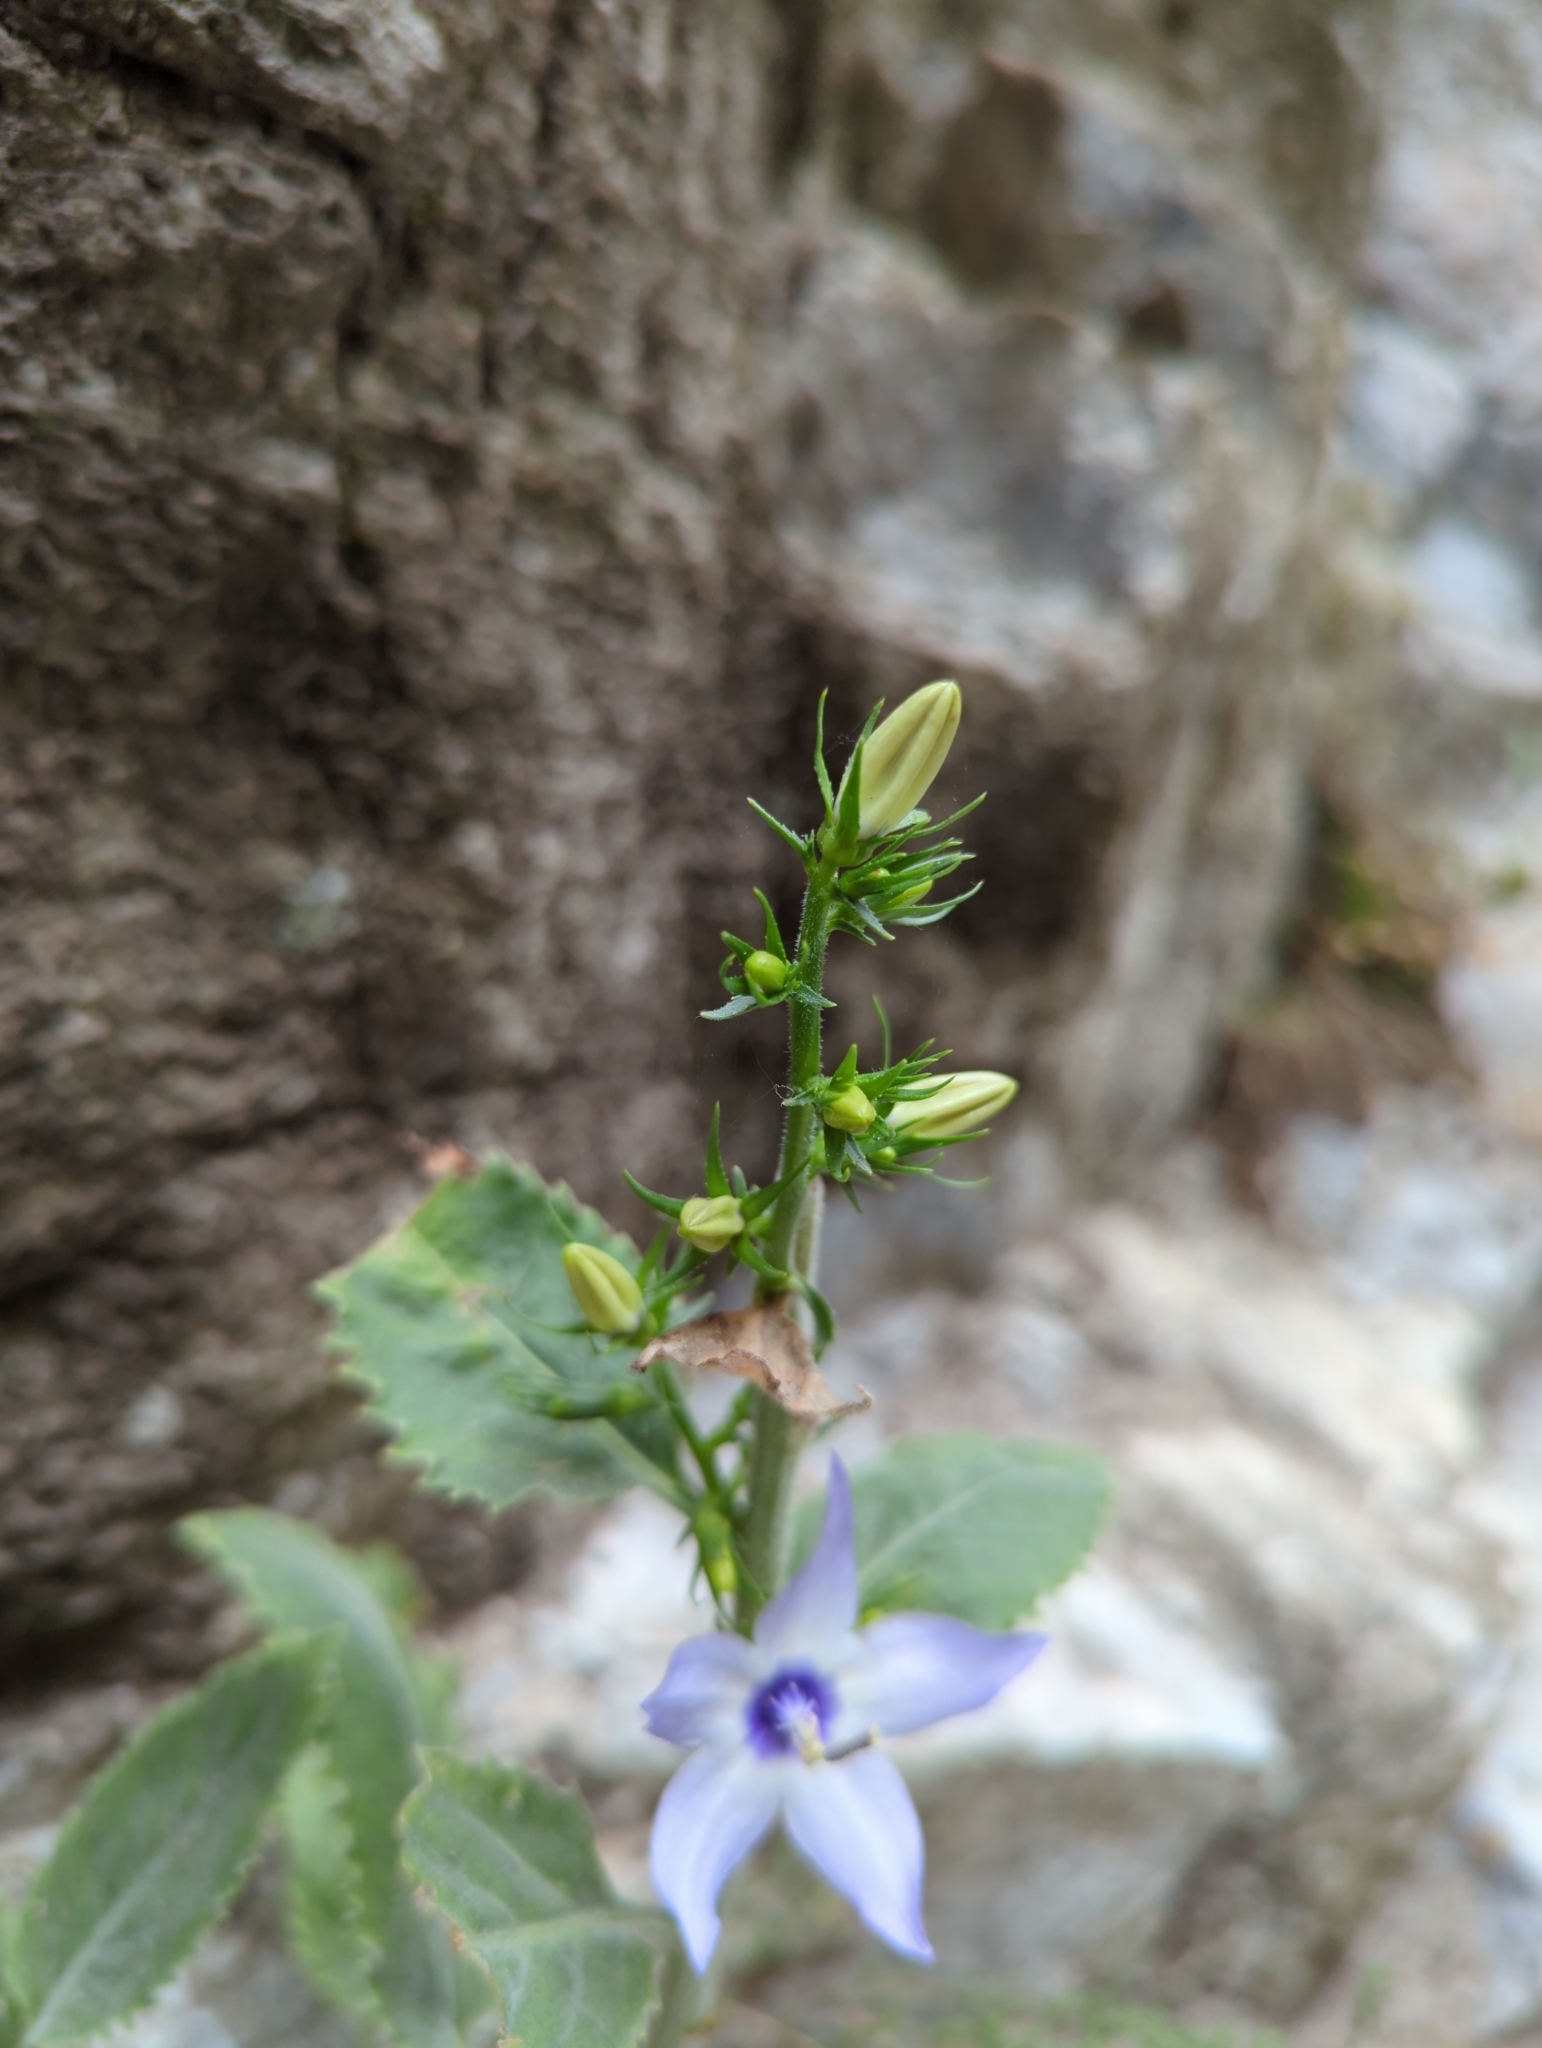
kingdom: Plantae
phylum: Tracheophyta
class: Magnoliopsida
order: Asterales
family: Campanulaceae
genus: Campanula
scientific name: Campanula versicolor
